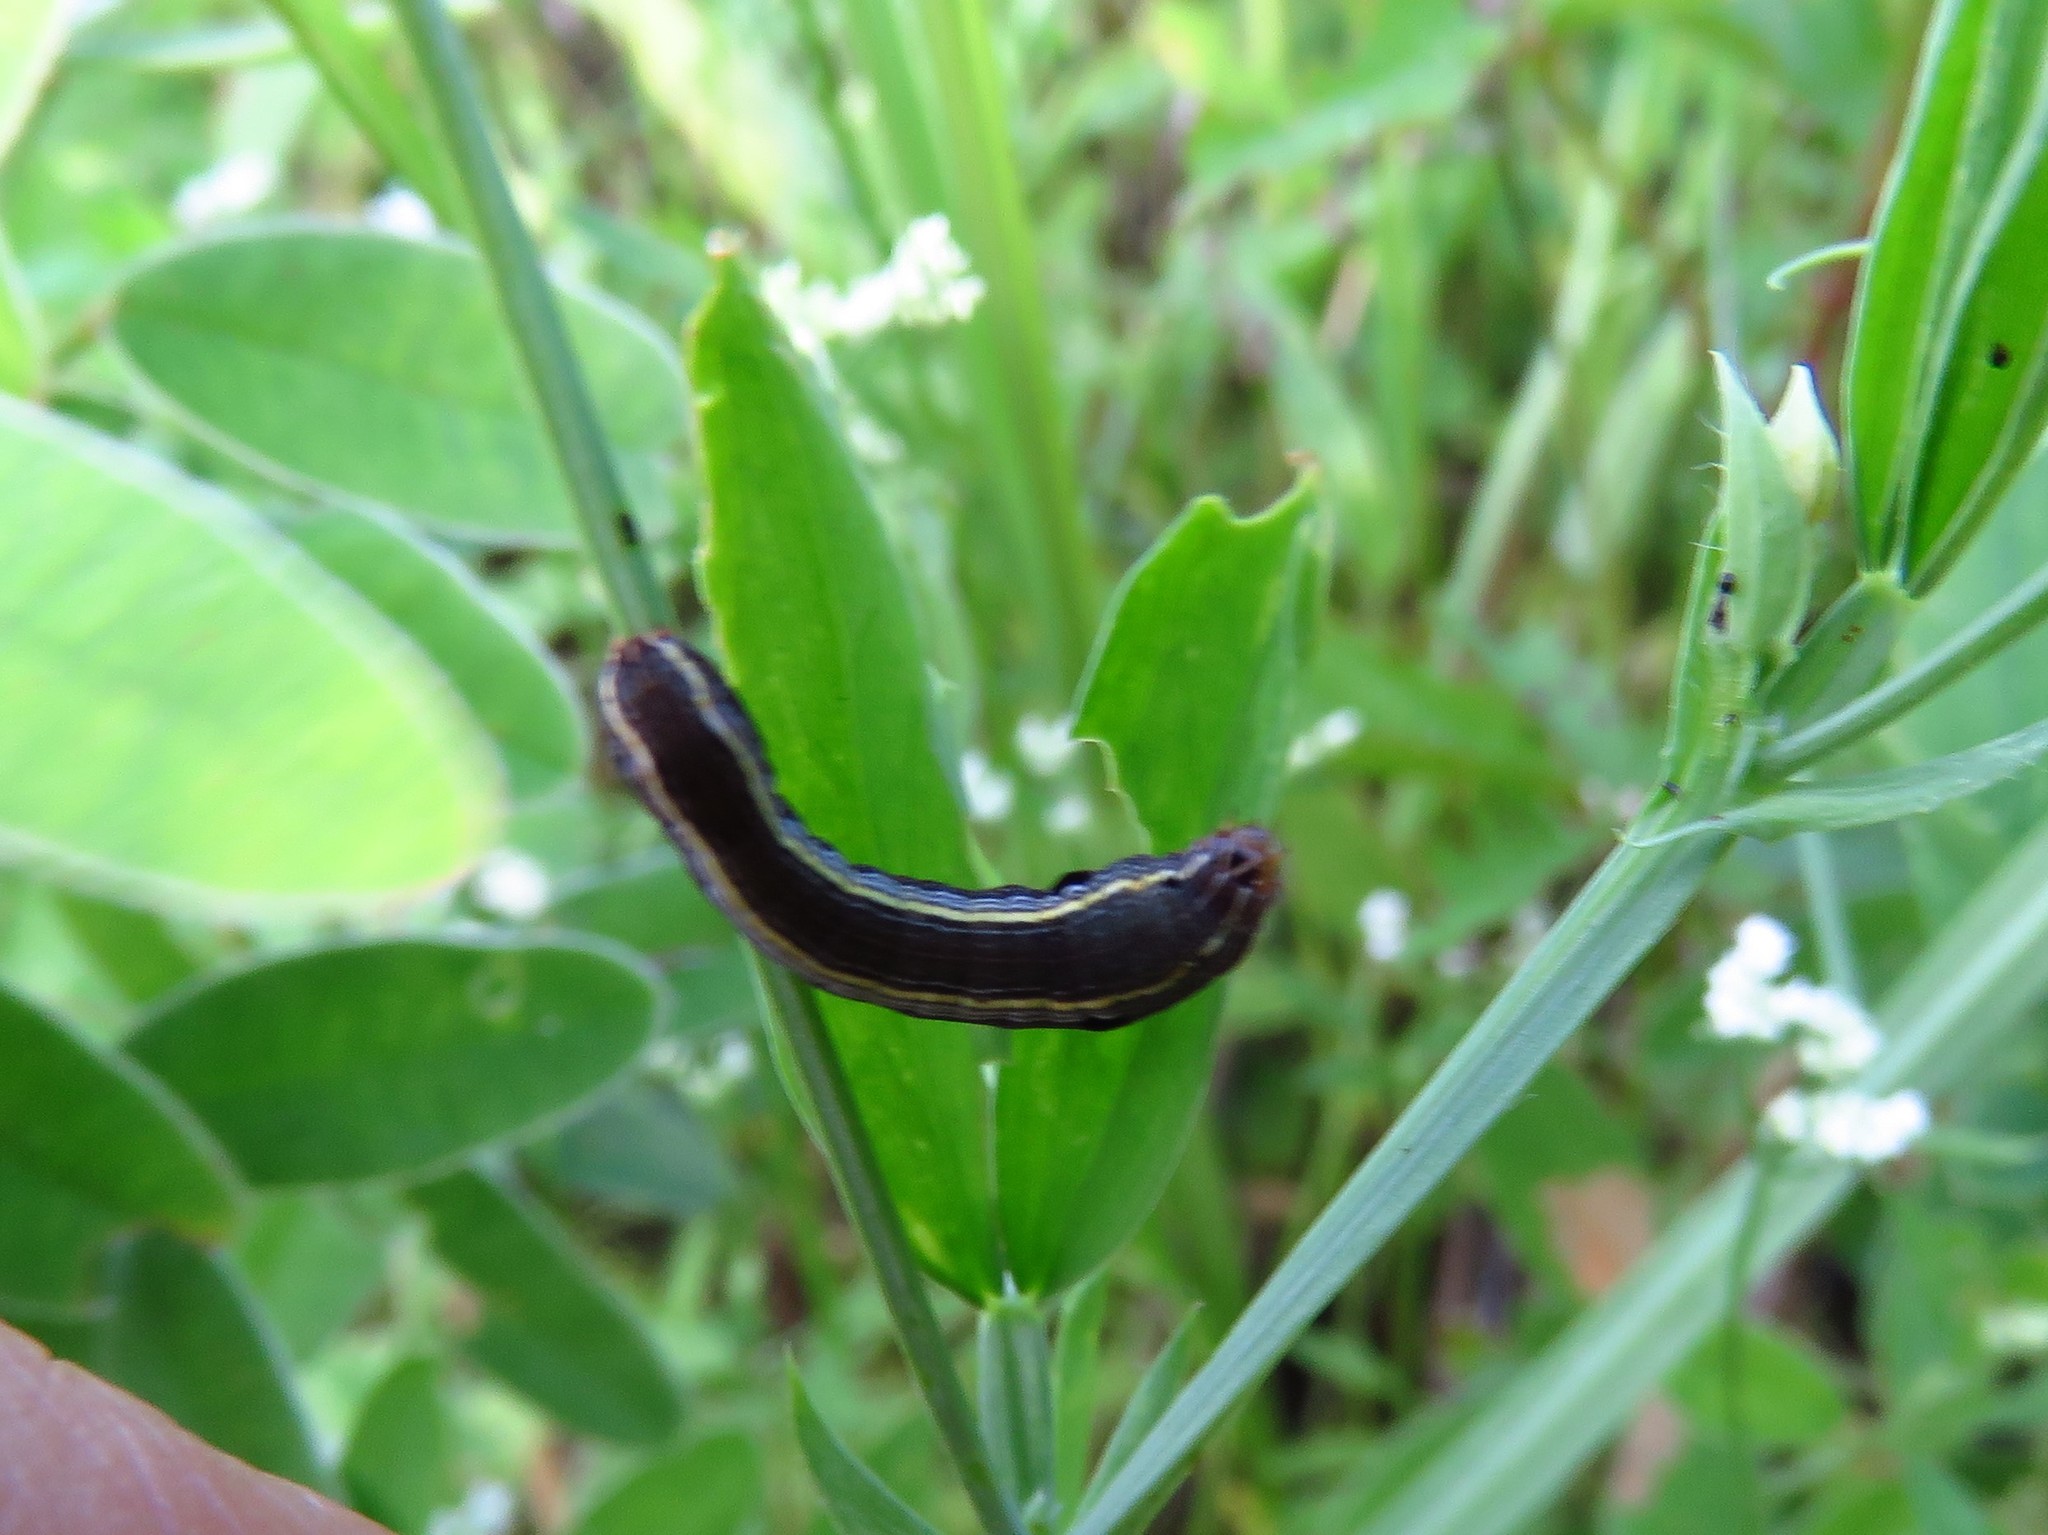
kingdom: Animalia
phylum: Arthropoda
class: Insecta
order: Lepidoptera
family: Noctuidae
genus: Spodoptera
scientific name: Spodoptera ornithogalli
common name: Yellow-striped armyworm
